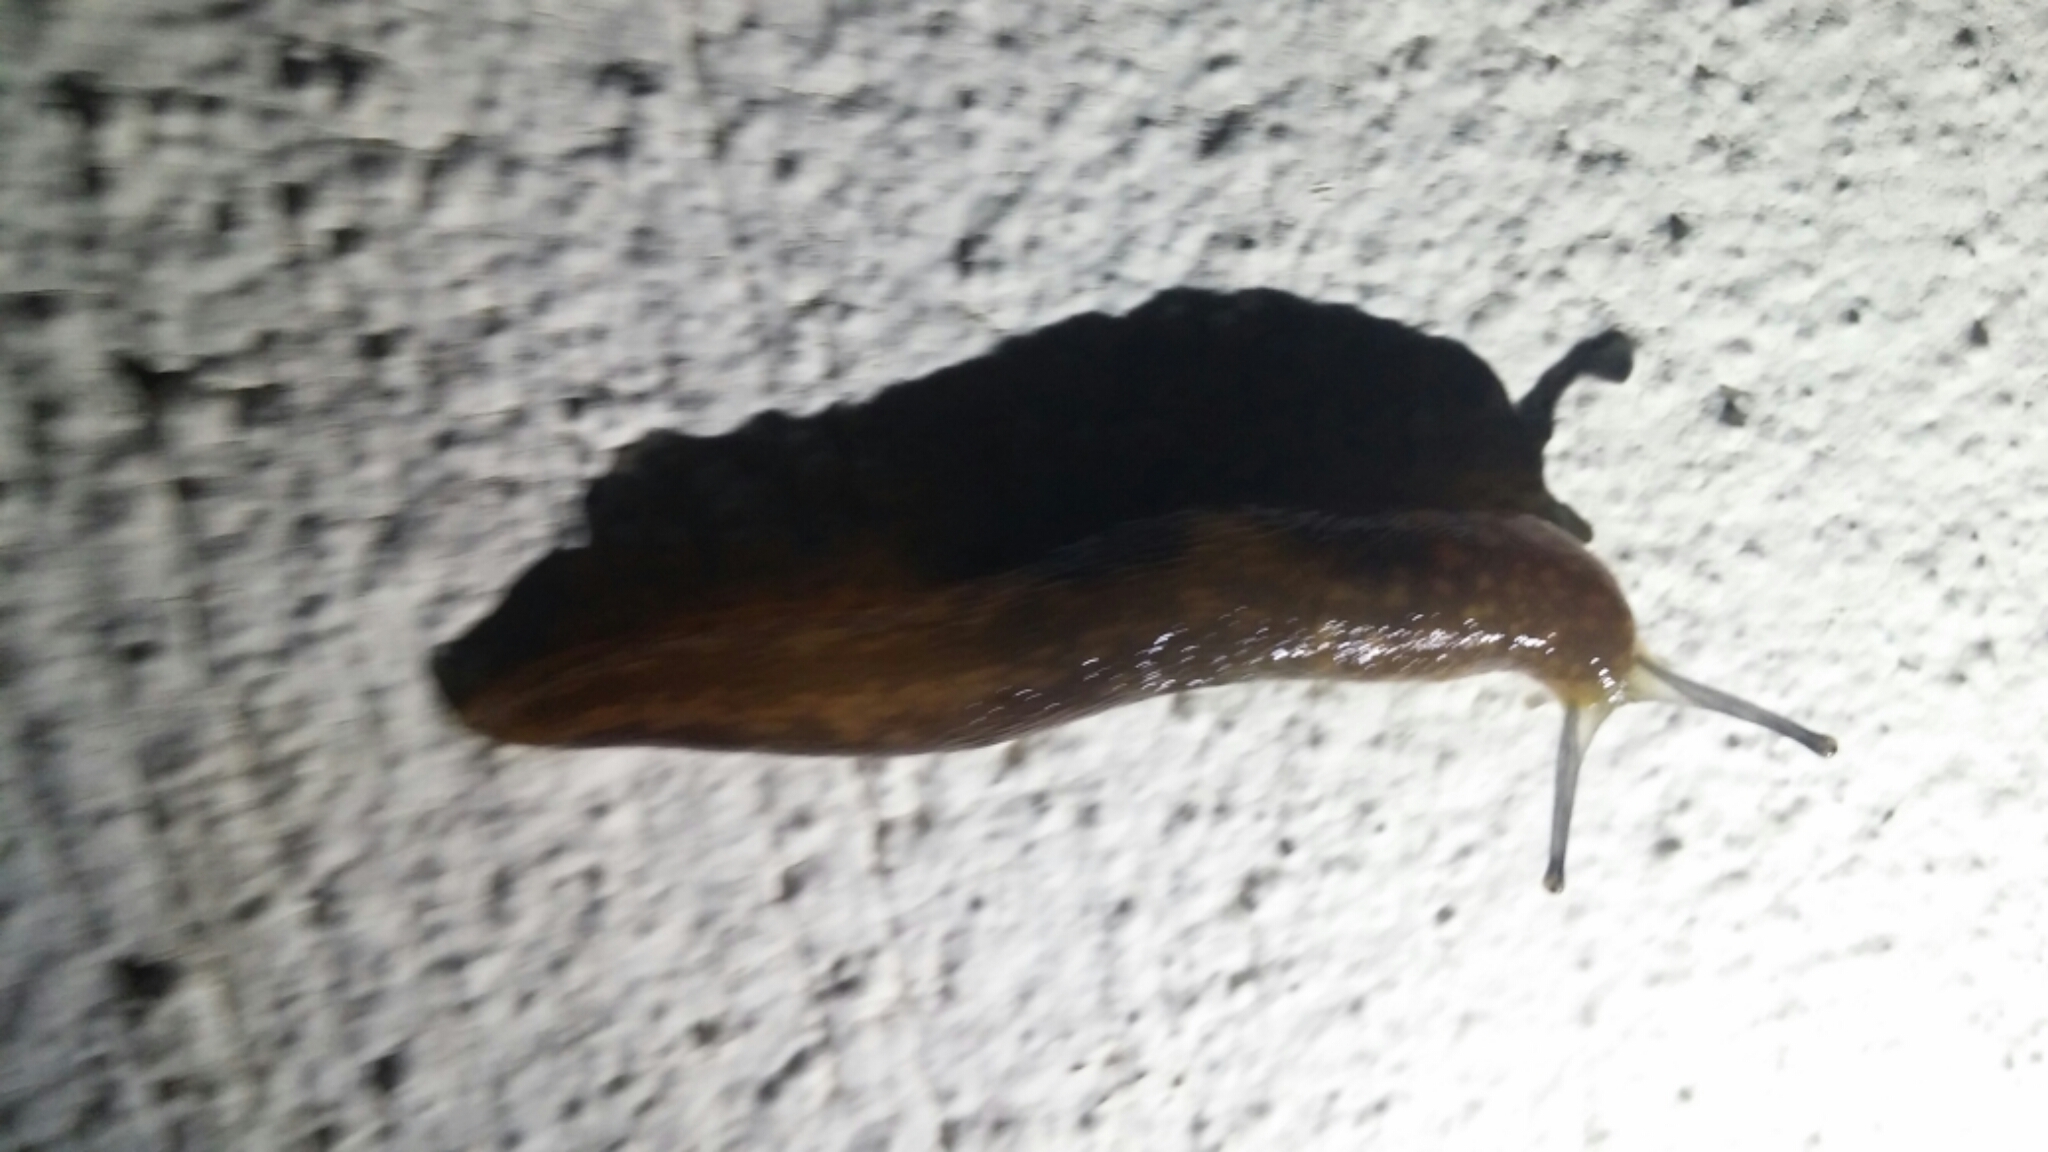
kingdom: Animalia
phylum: Mollusca
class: Gastropoda
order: Stylommatophora
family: Limacidae
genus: Limacus
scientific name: Limacus flavus
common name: Yellow gardenslug
